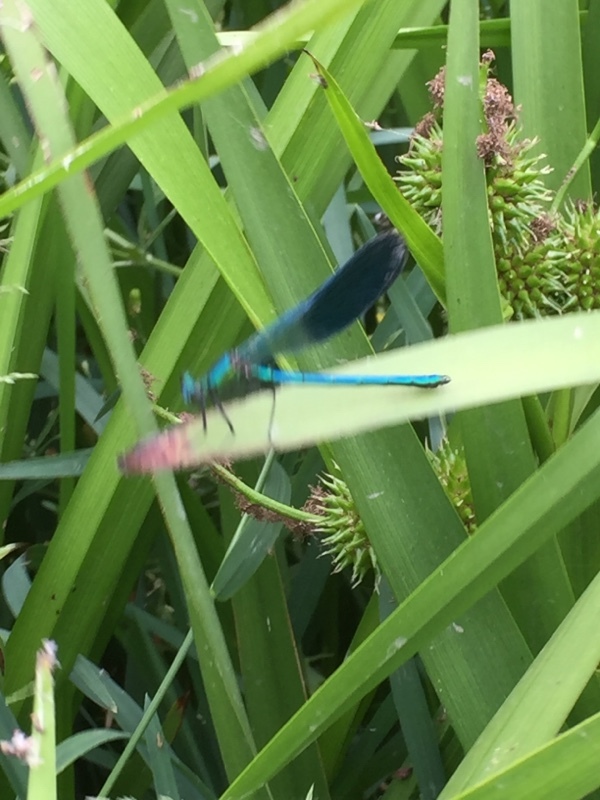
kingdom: Animalia
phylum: Arthropoda
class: Insecta
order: Odonata
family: Calopterygidae
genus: Calopteryx
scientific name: Calopteryx splendens
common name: Banded demoiselle
